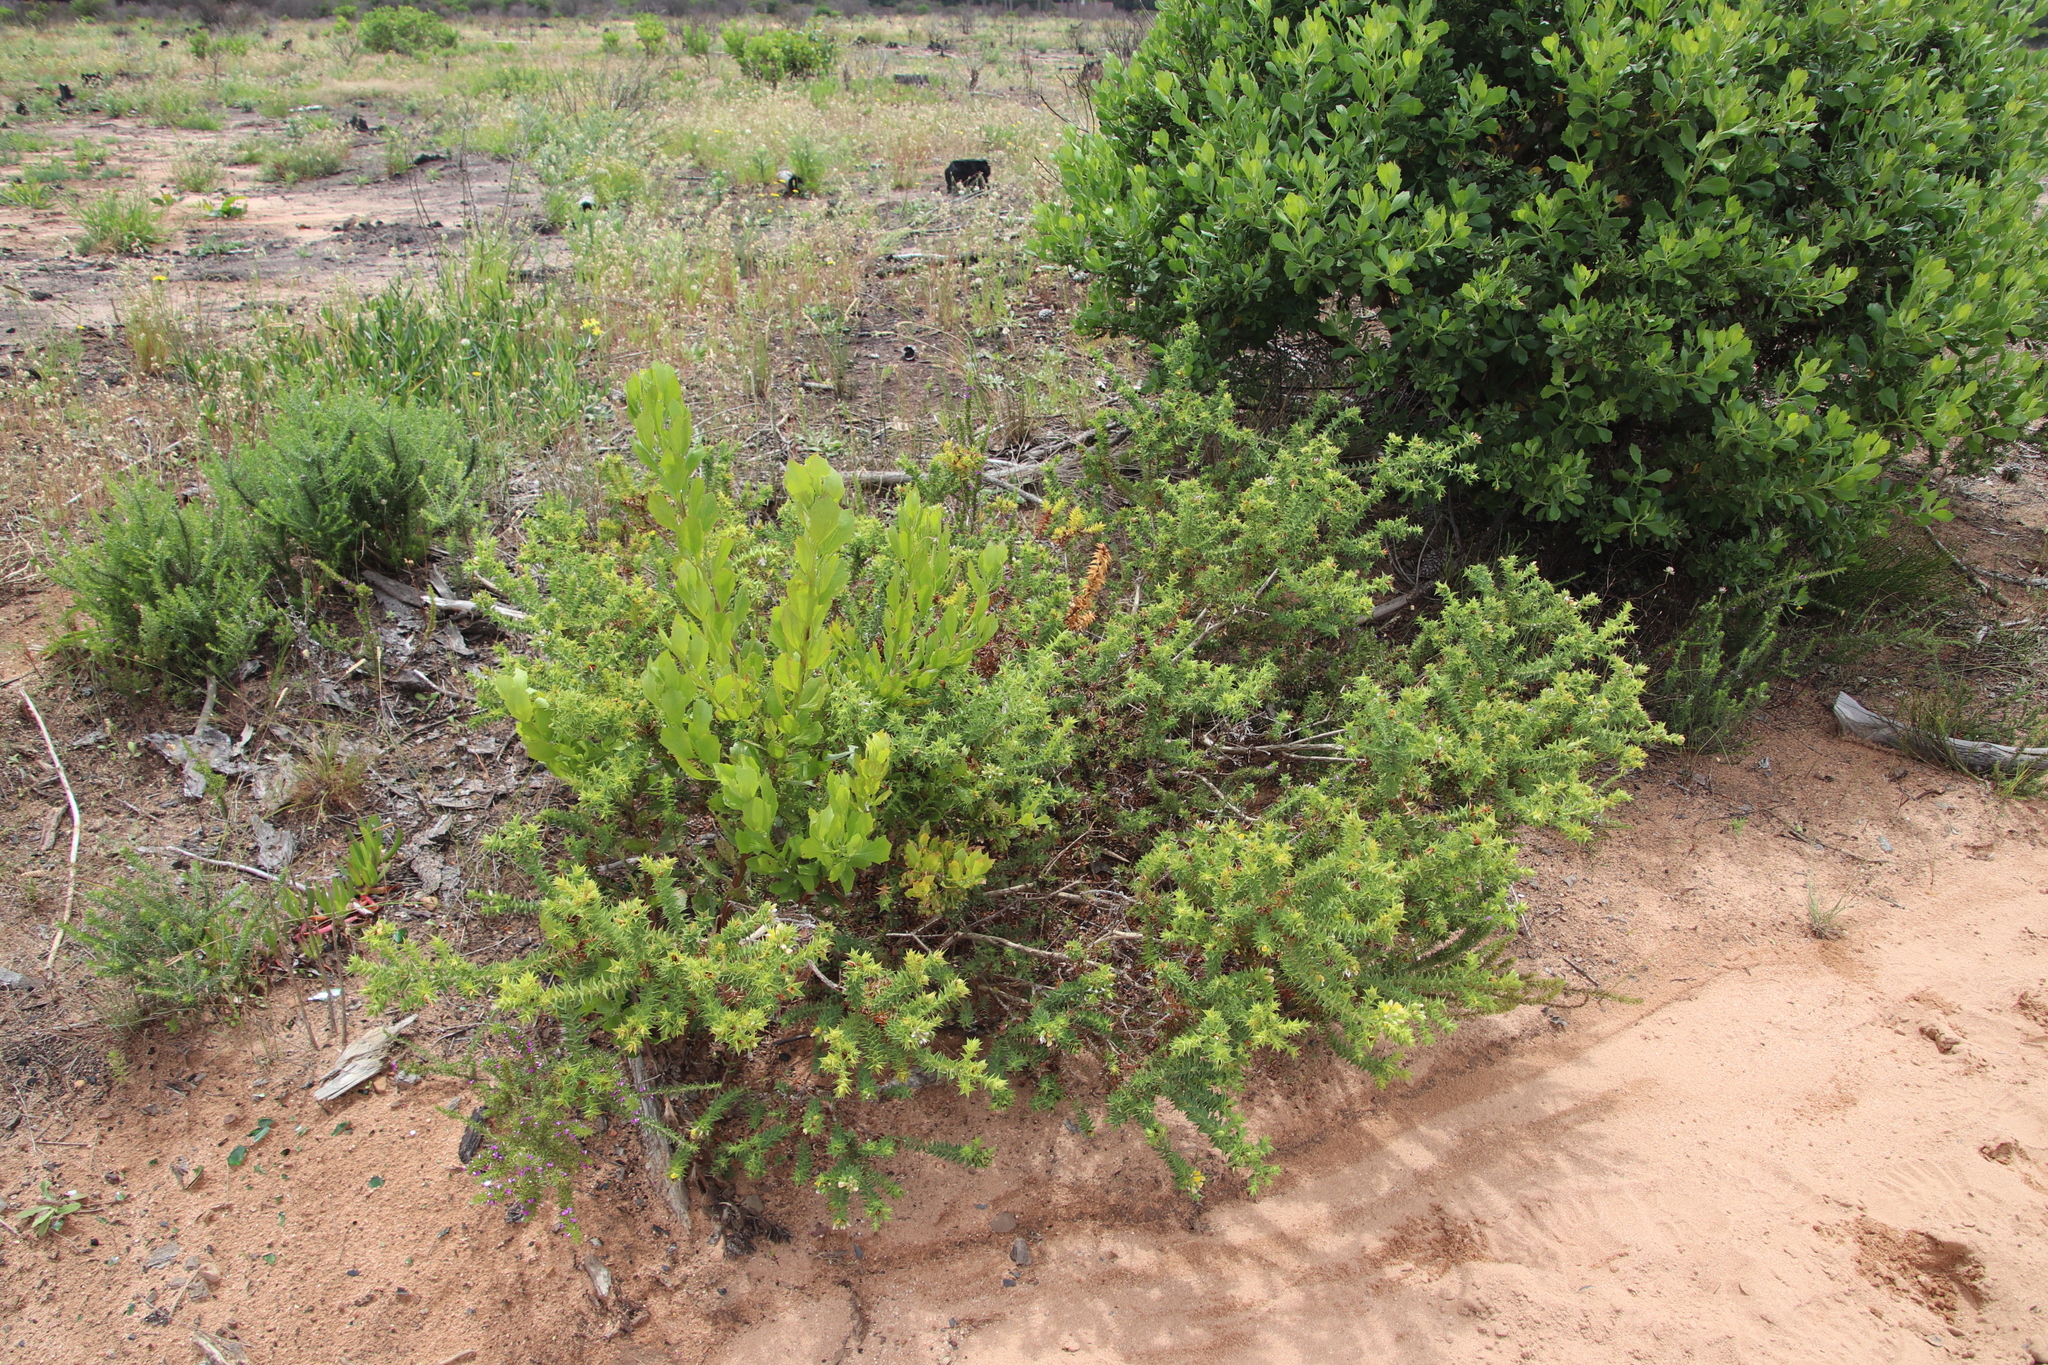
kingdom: Plantae
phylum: Tracheophyta
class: Magnoliopsida
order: Fabales
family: Fabaceae
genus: Aspalathus
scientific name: Aspalathus cordata
